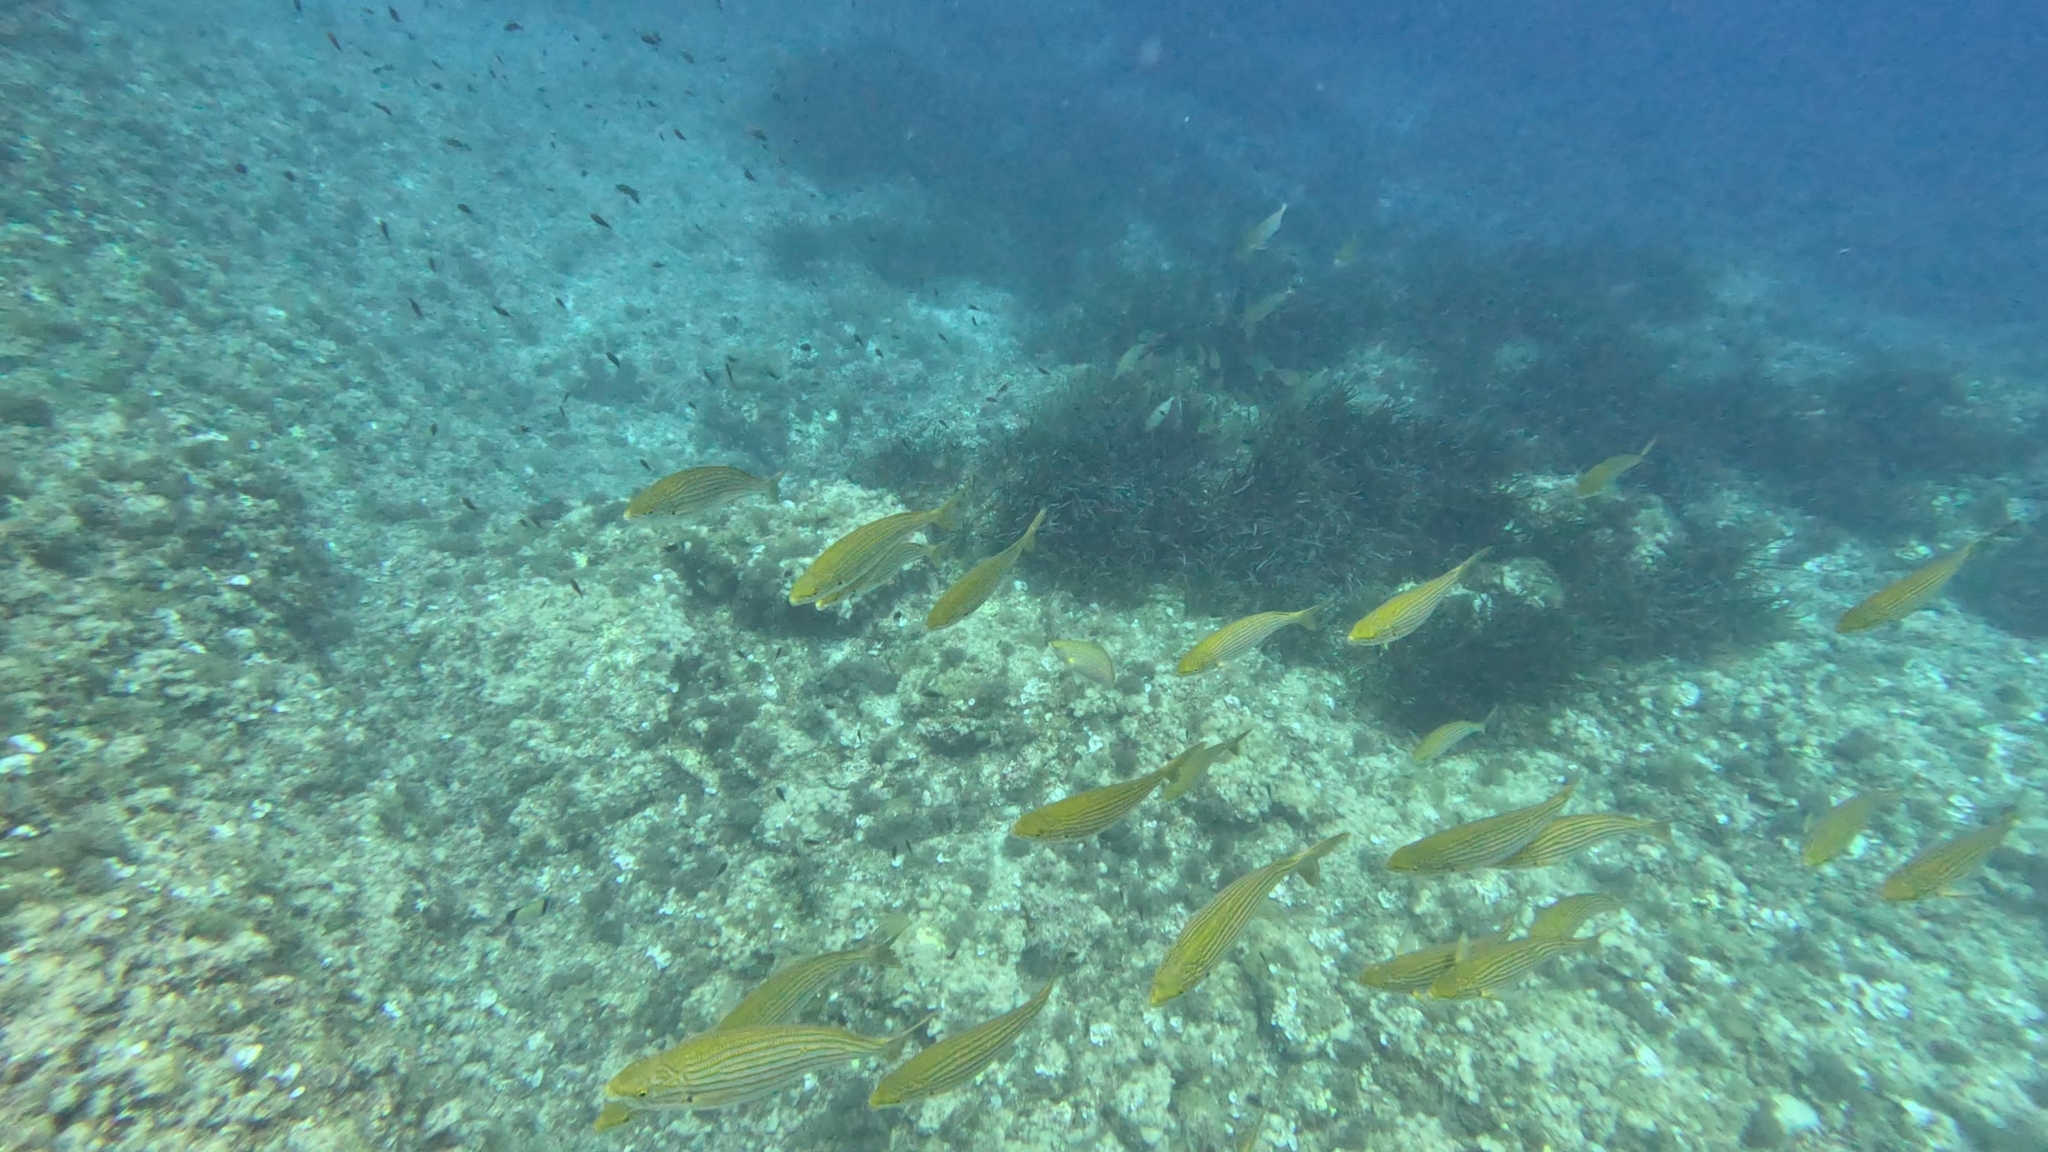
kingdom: Animalia
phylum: Chordata
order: Perciformes
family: Sparidae
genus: Sarpa
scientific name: Sarpa salpa
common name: Salema
